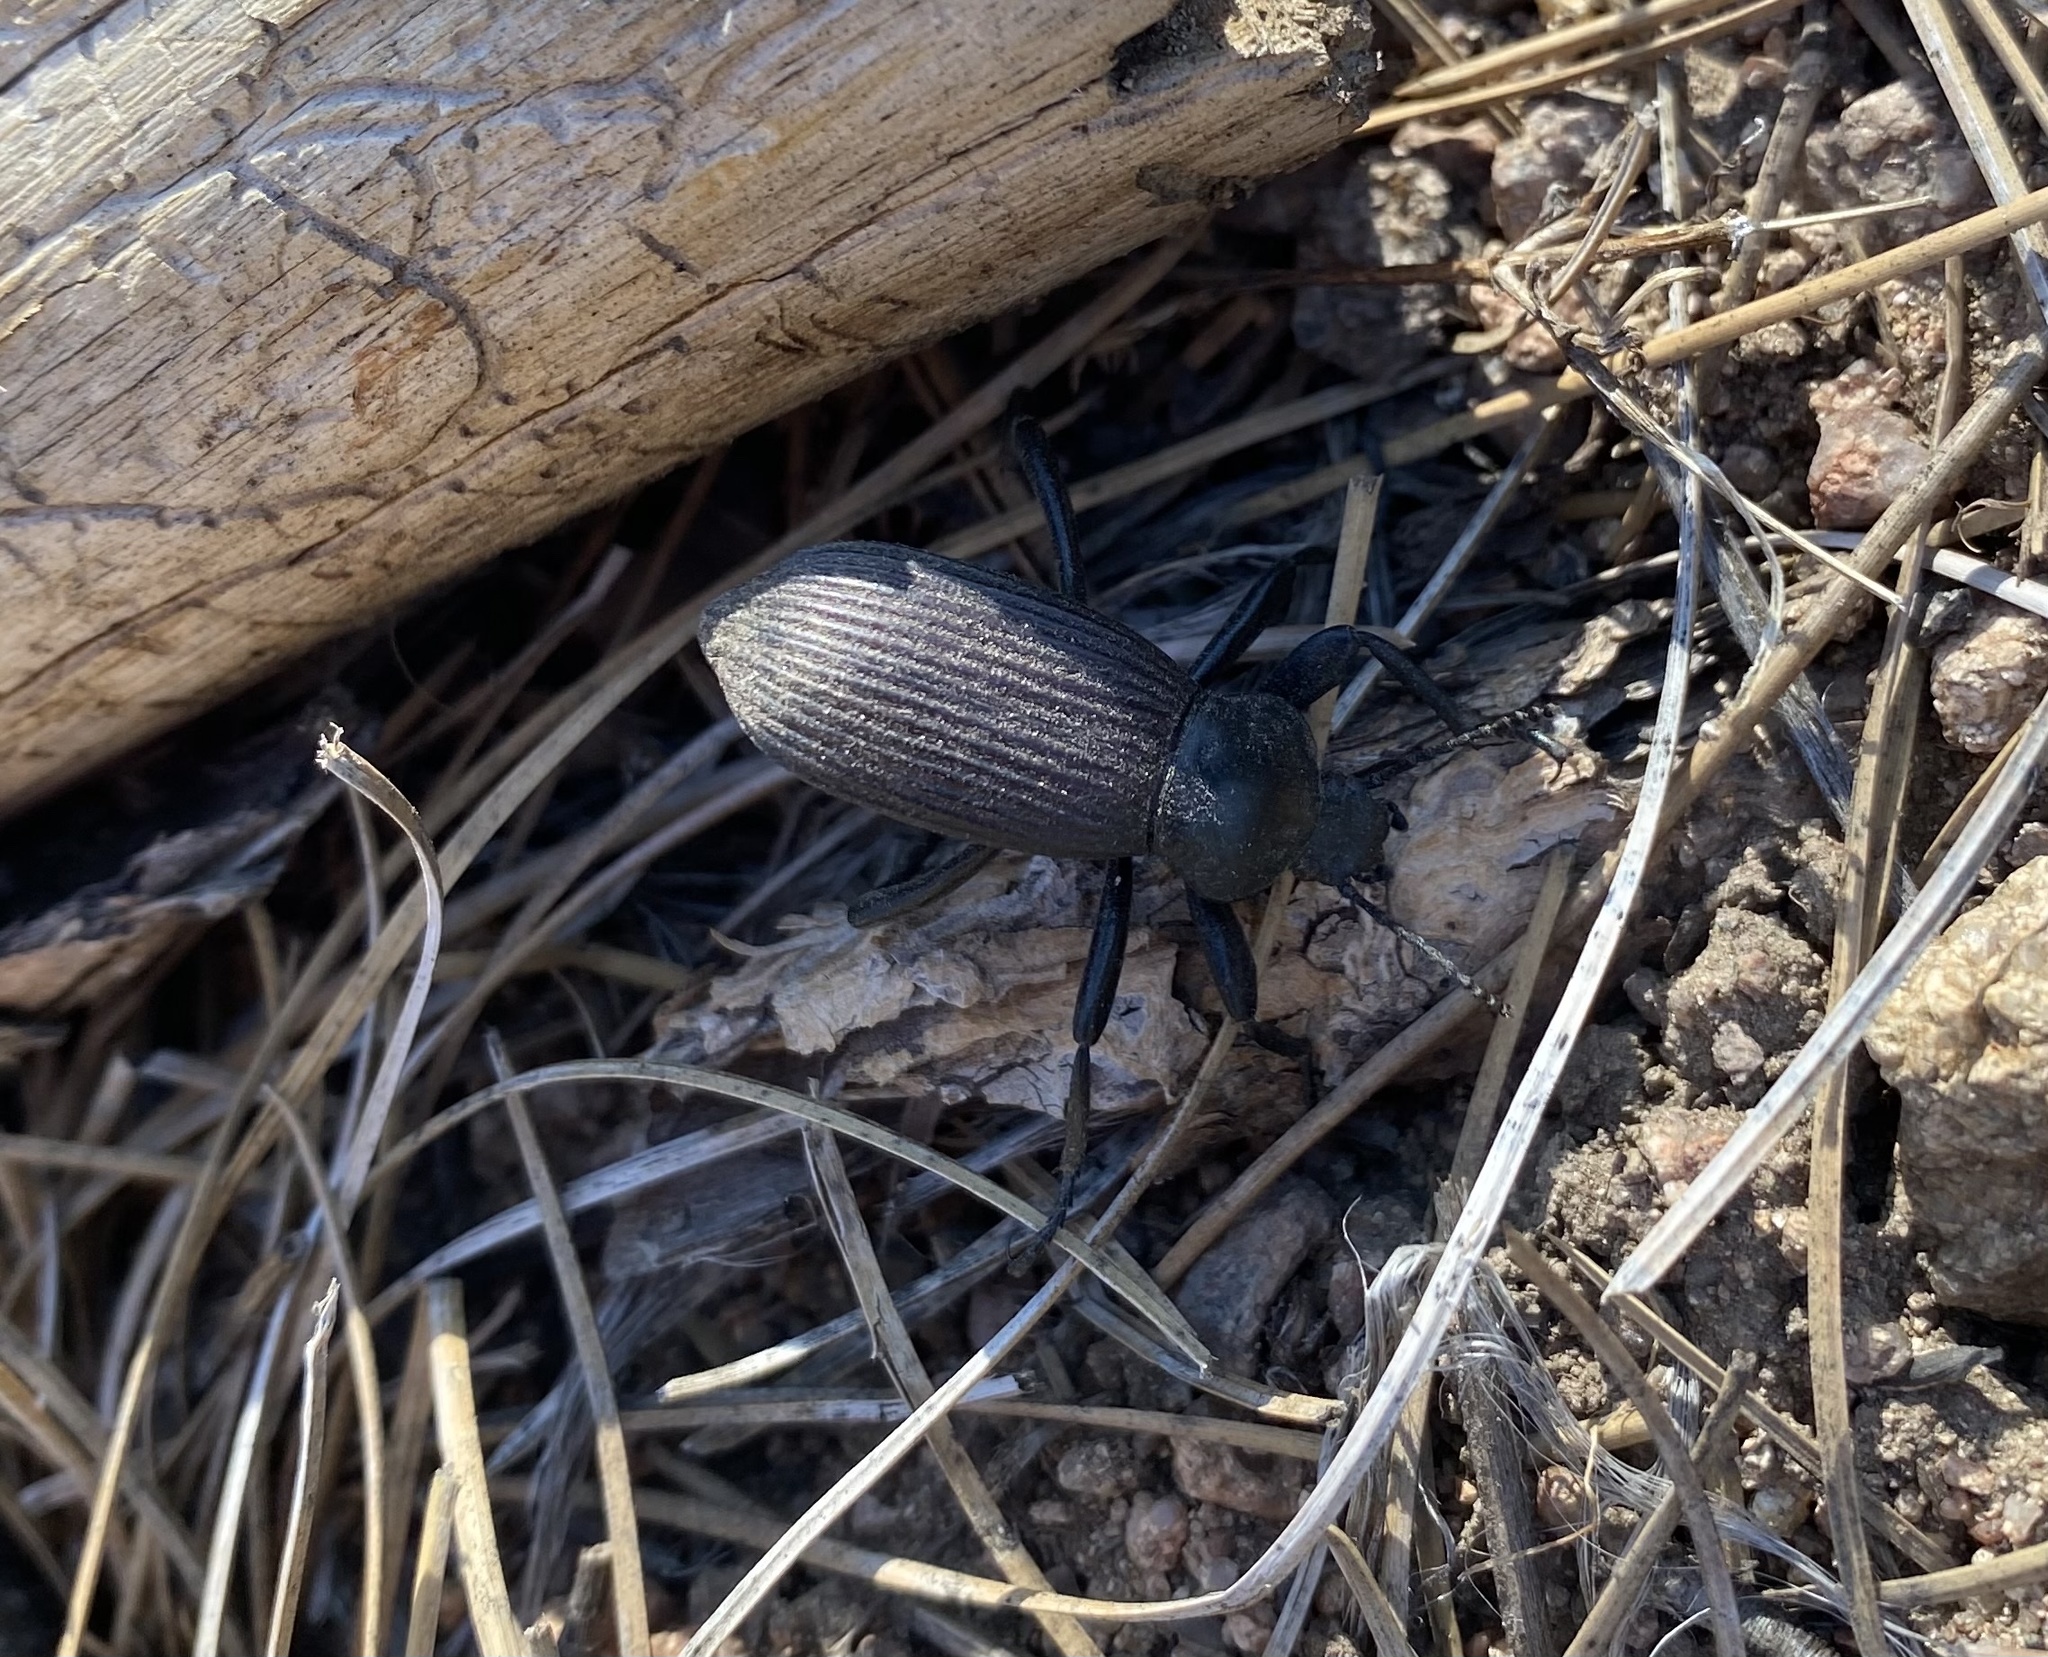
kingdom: Animalia
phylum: Arthropoda
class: Insecta
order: Coleoptera
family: Tenebrionidae
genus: Eleodes
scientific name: Eleodes obscura
